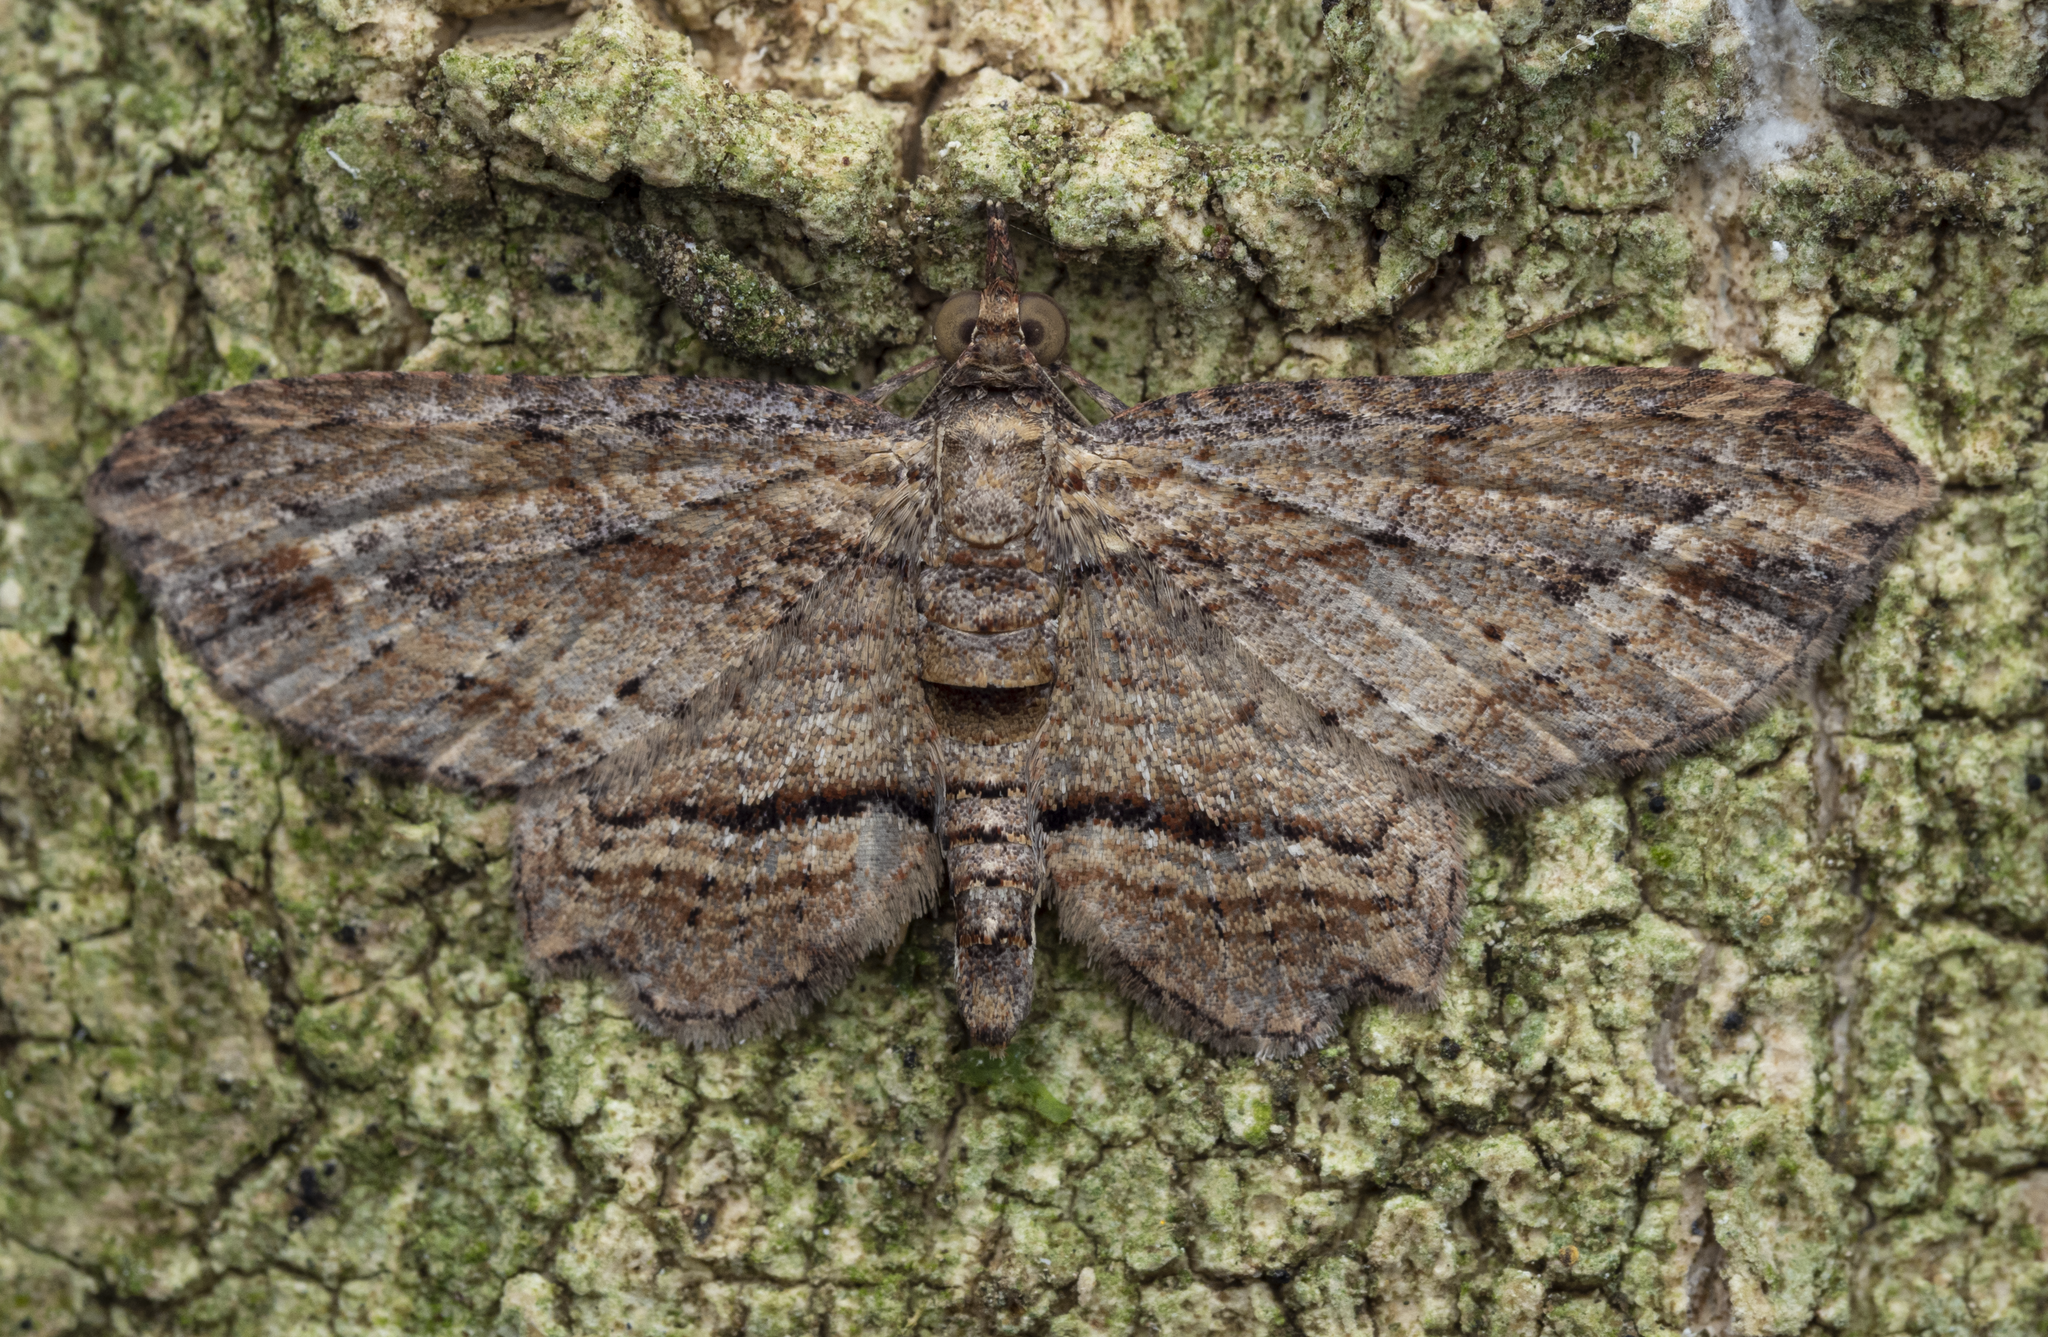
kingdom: Animalia
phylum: Arthropoda
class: Insecta
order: Lepidoptera
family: Geometridae
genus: Chloroclystis
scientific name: Chloroclystis filata
